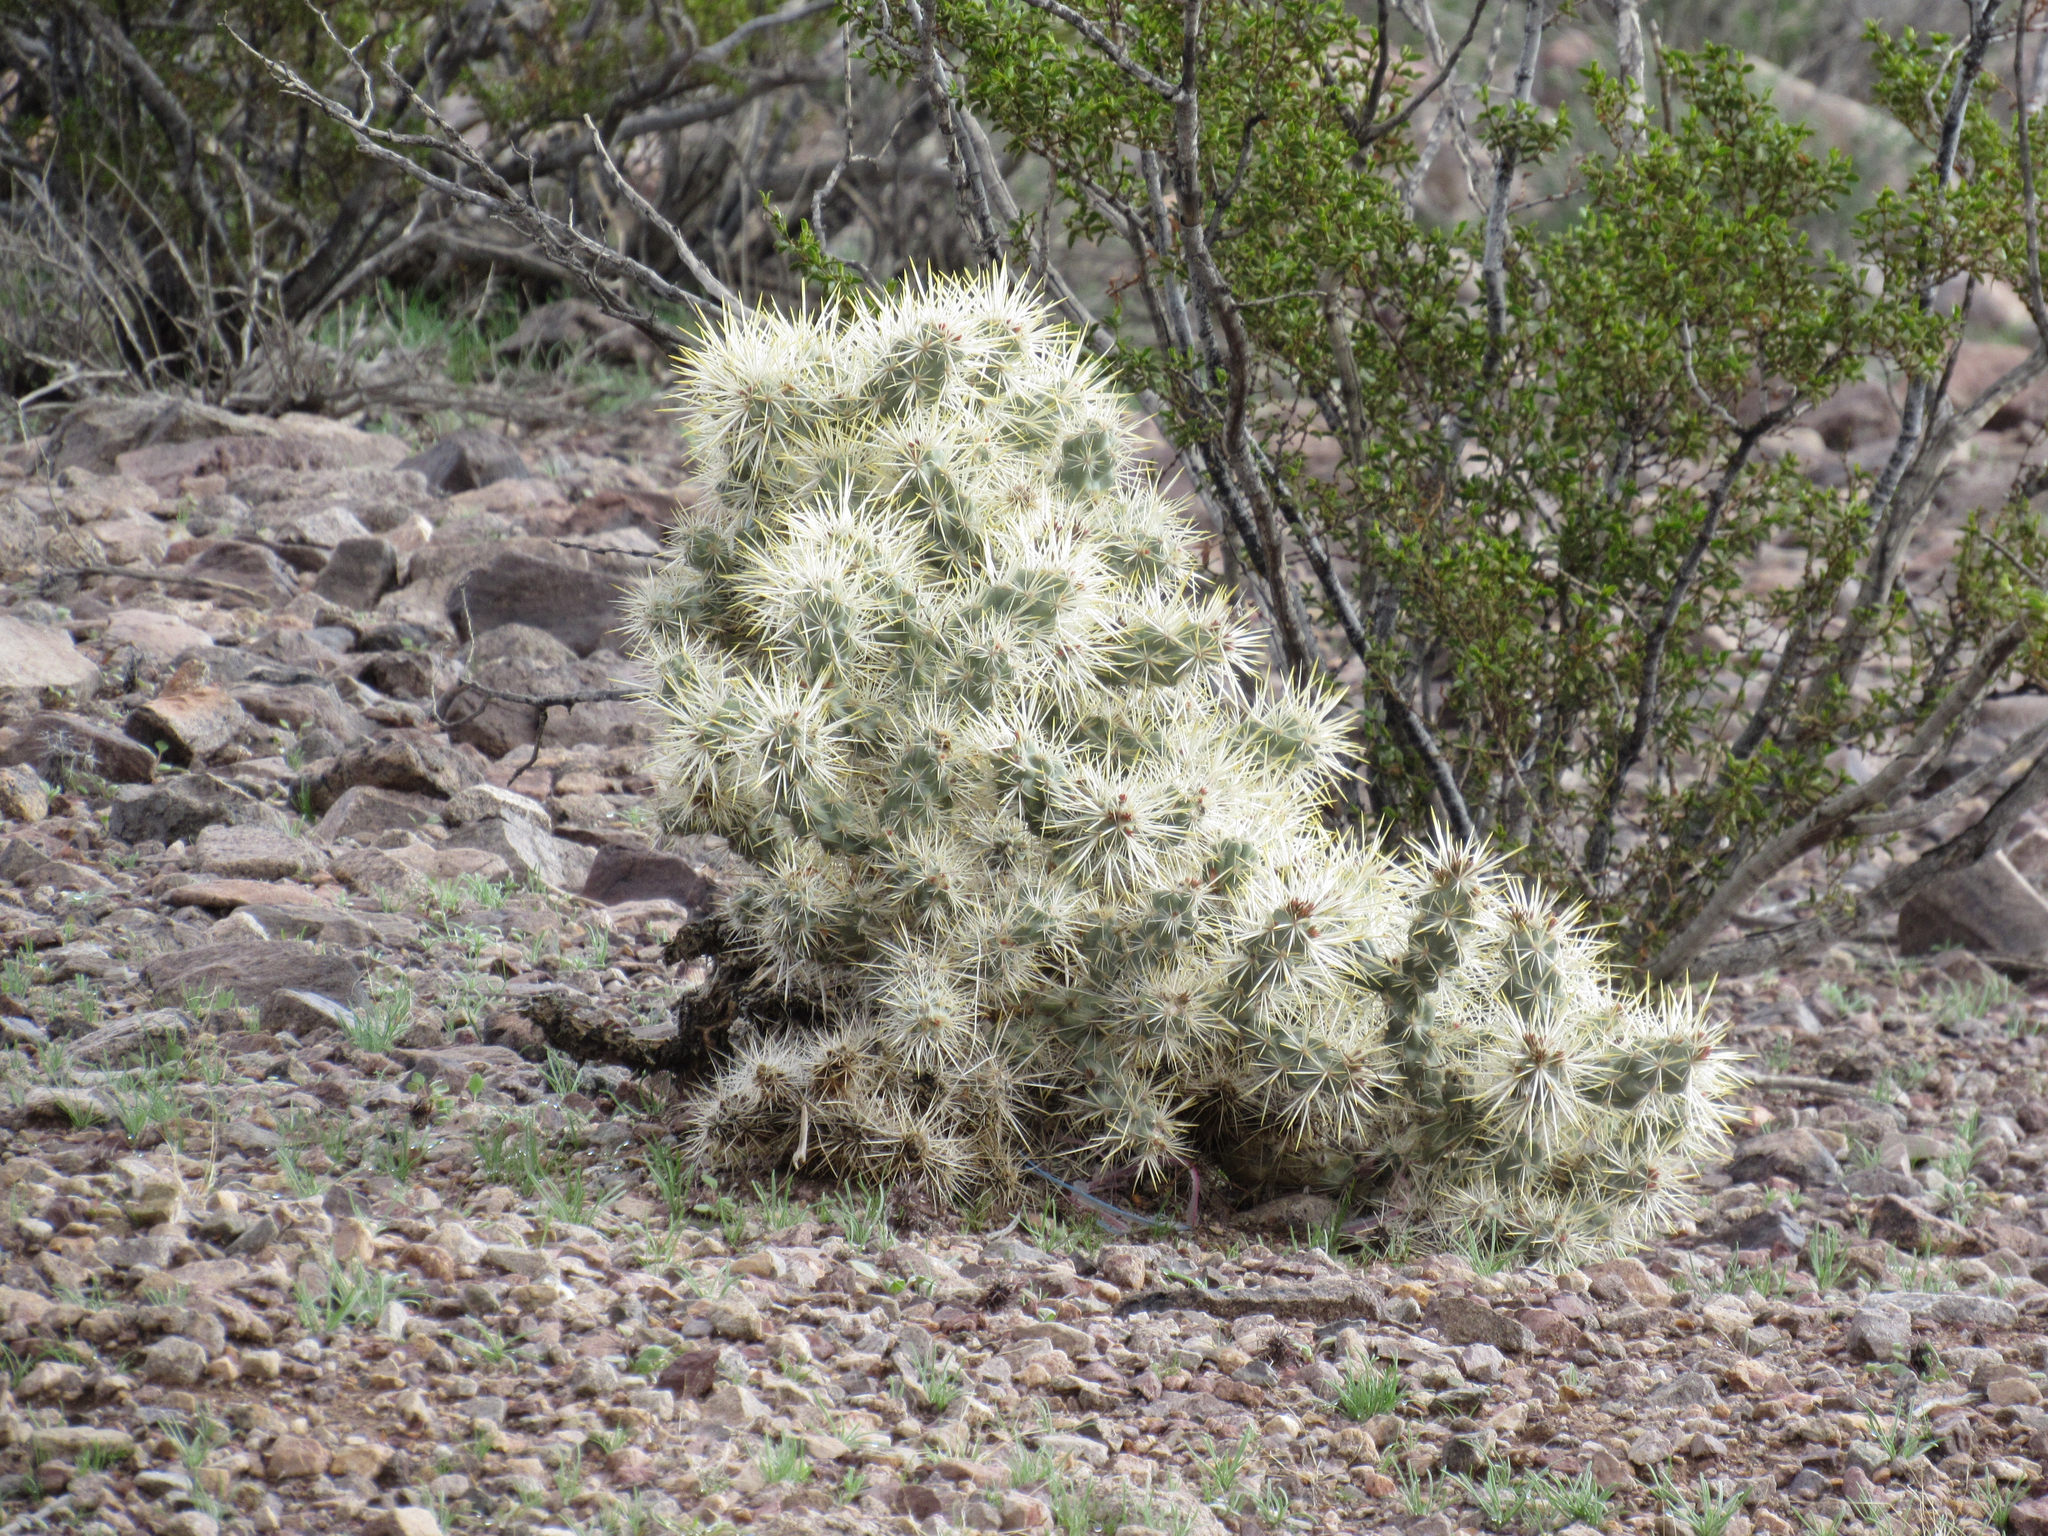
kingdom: Plantae
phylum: Tracheophyta
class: Magnoliopsida
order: Caryophyllales
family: Cactaceae
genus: Cylindropuntia
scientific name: Cylindropuntia echinocarpa
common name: Ground cholla
